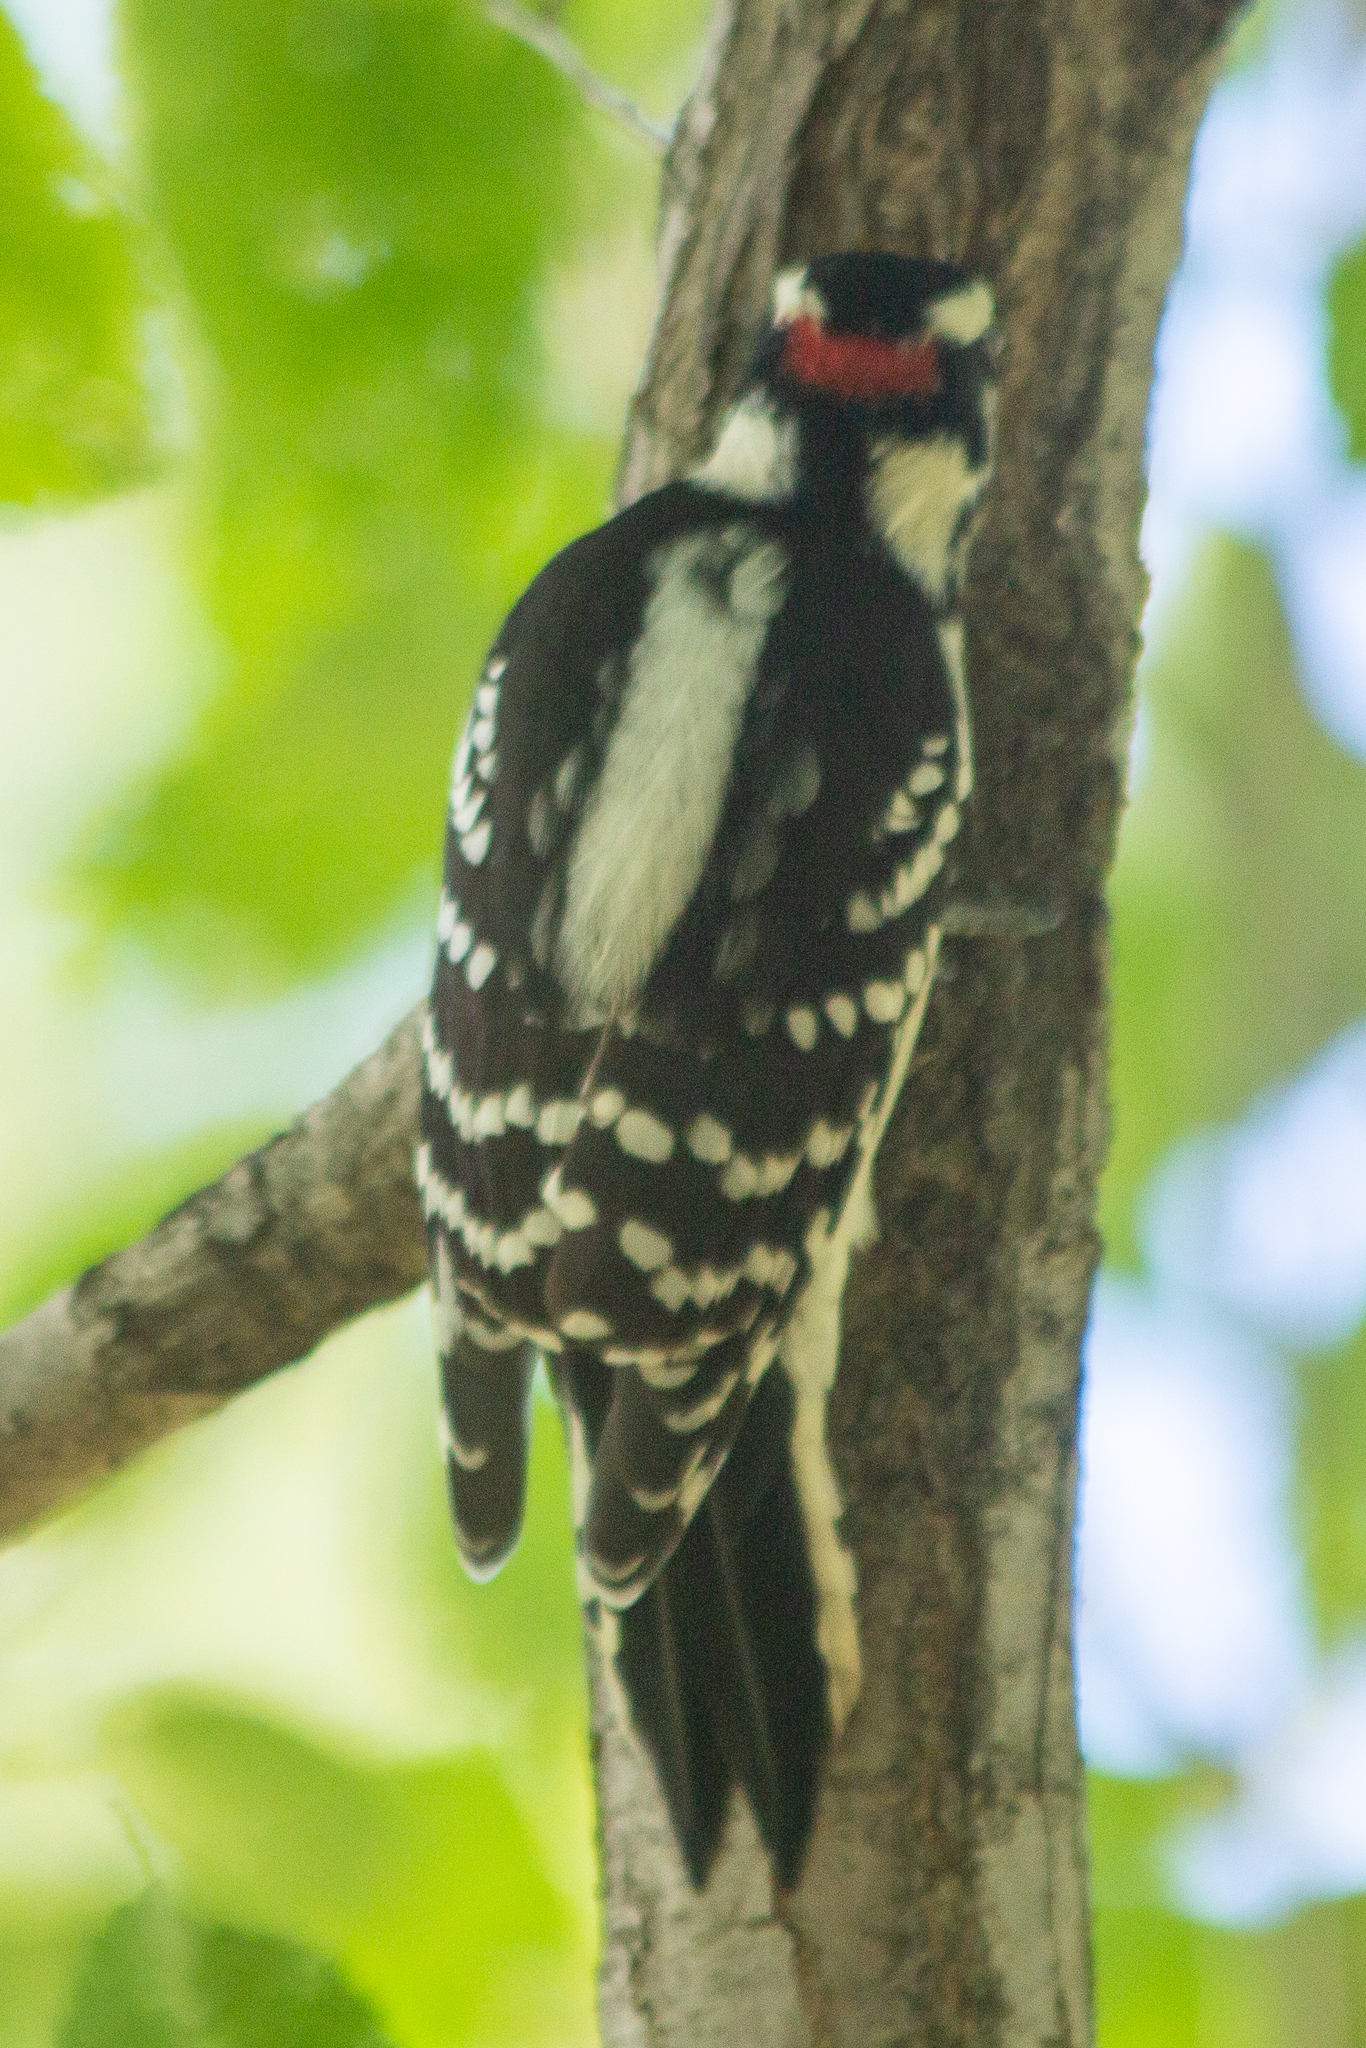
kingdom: Animalia
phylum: Chordata
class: Aves
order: Piciformes
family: Picidae
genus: Dryobates
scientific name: Dryobates pubescens
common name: Downy woodpecker
